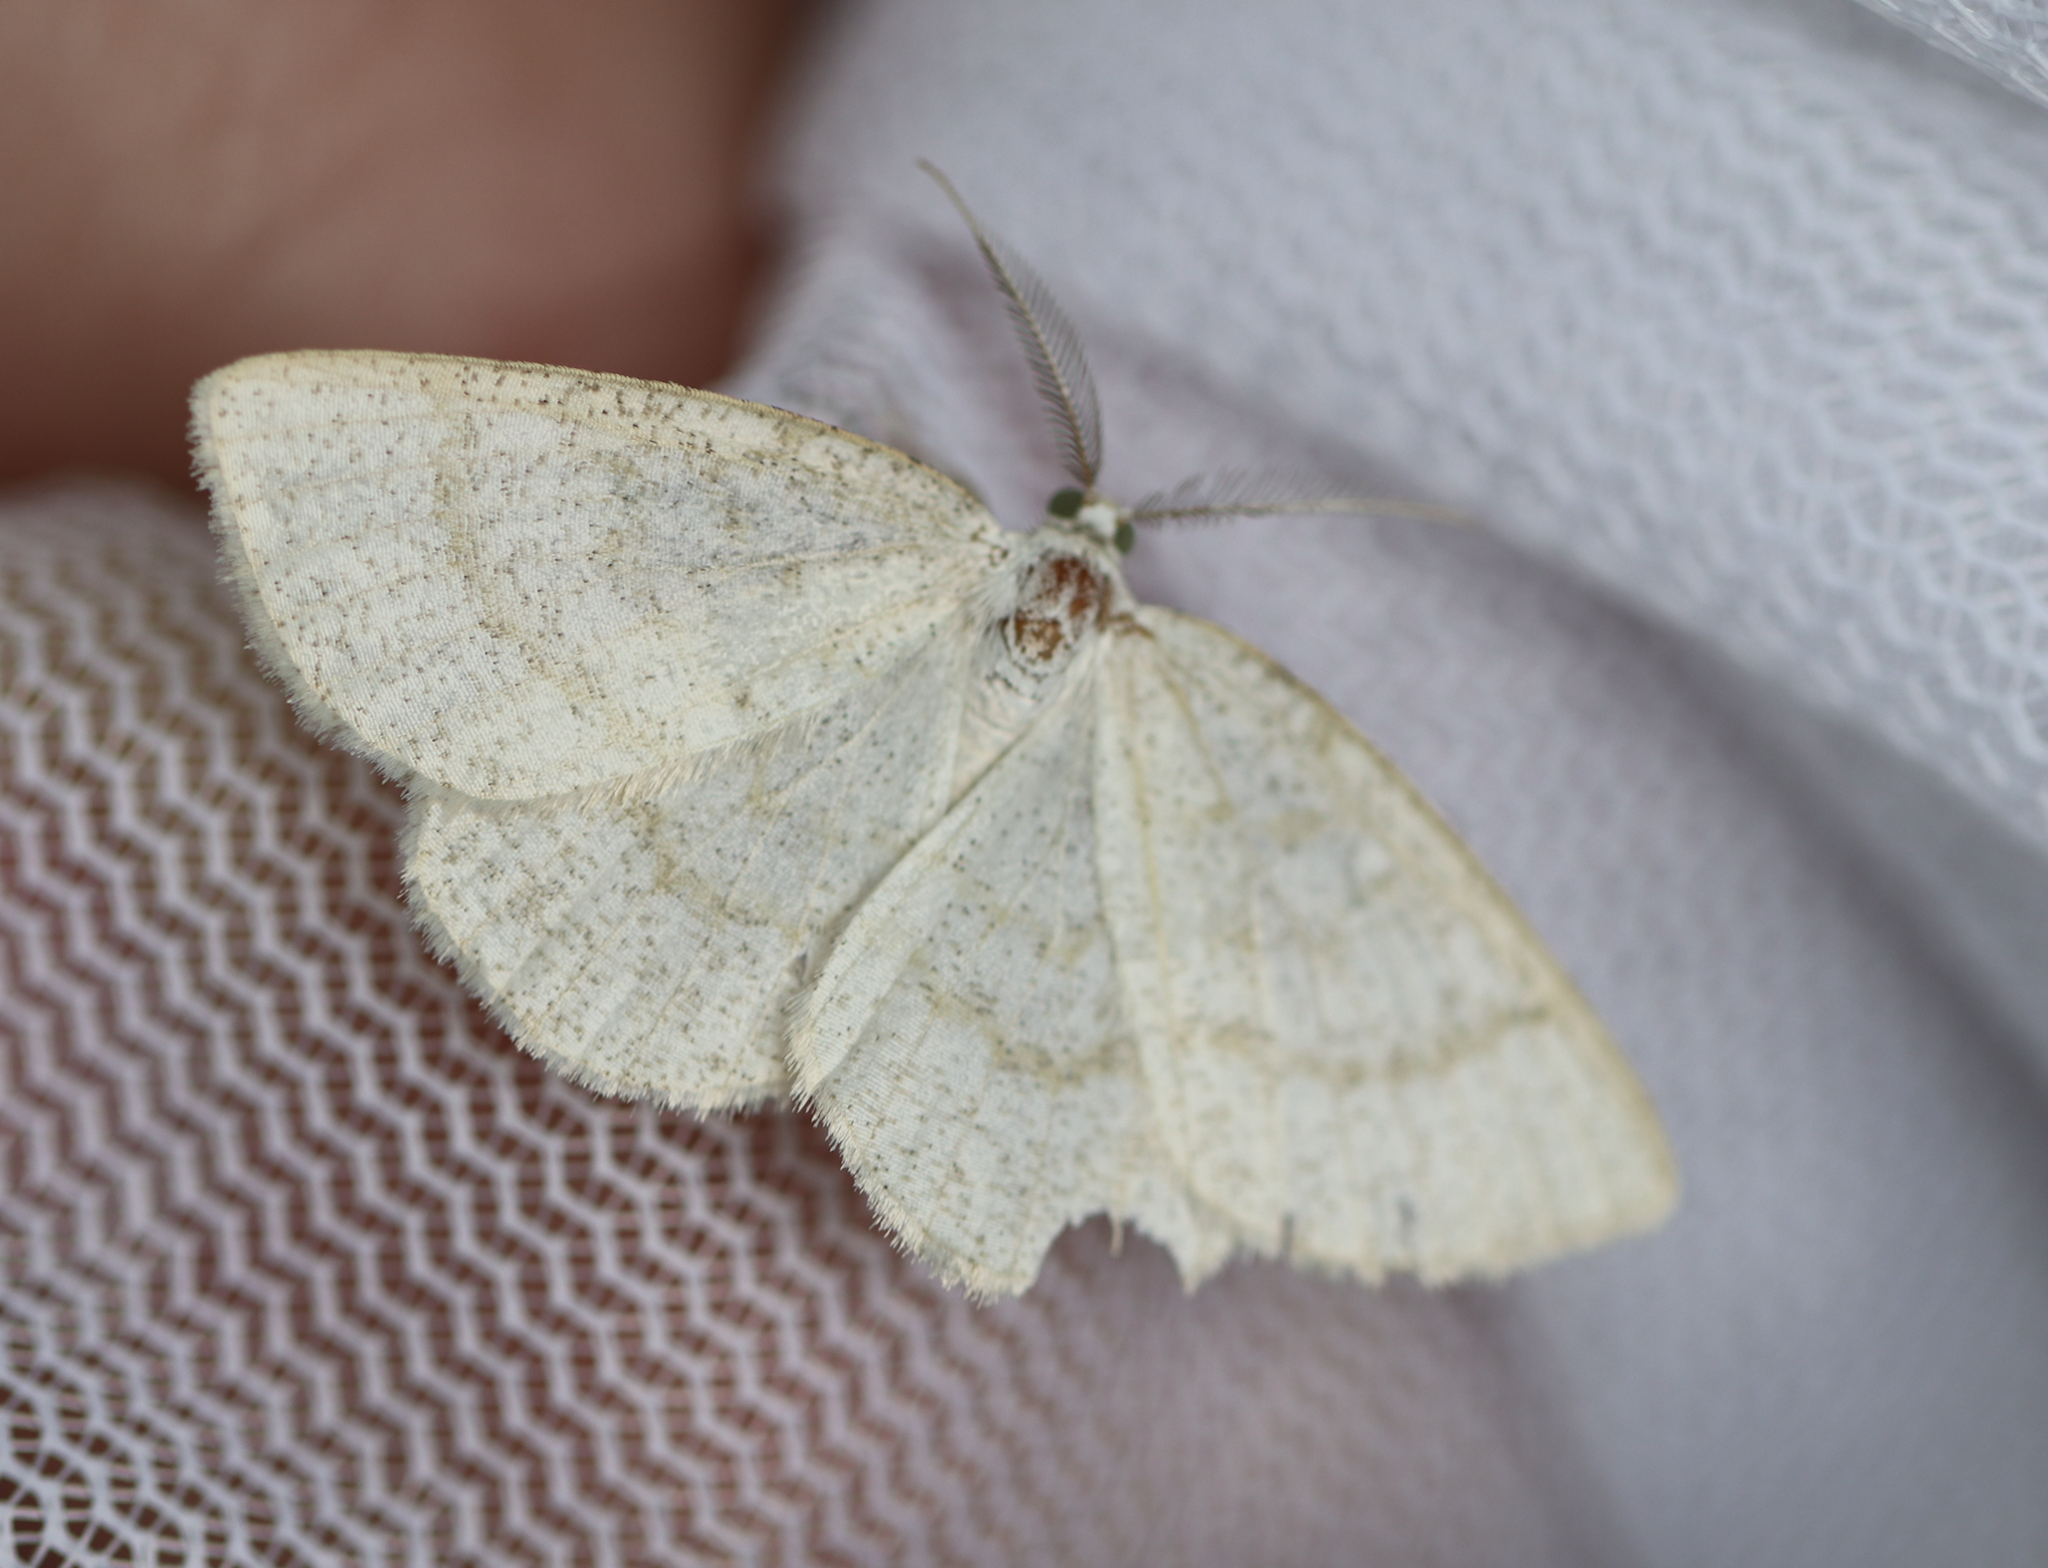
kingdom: Animalia
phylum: Arthropoda
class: Insecta
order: Lepidoptera
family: Geometridae
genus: Cabera
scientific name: Cabera exanthemata
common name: Common wave
